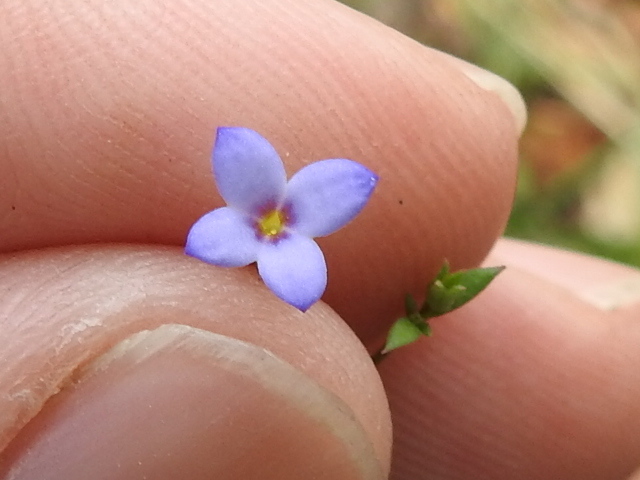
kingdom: Plantae
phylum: Tracheophyta
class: Magnoliopsida
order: Gentianales
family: Rubiaceae
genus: Houstonia
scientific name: Houstonia pusilla
